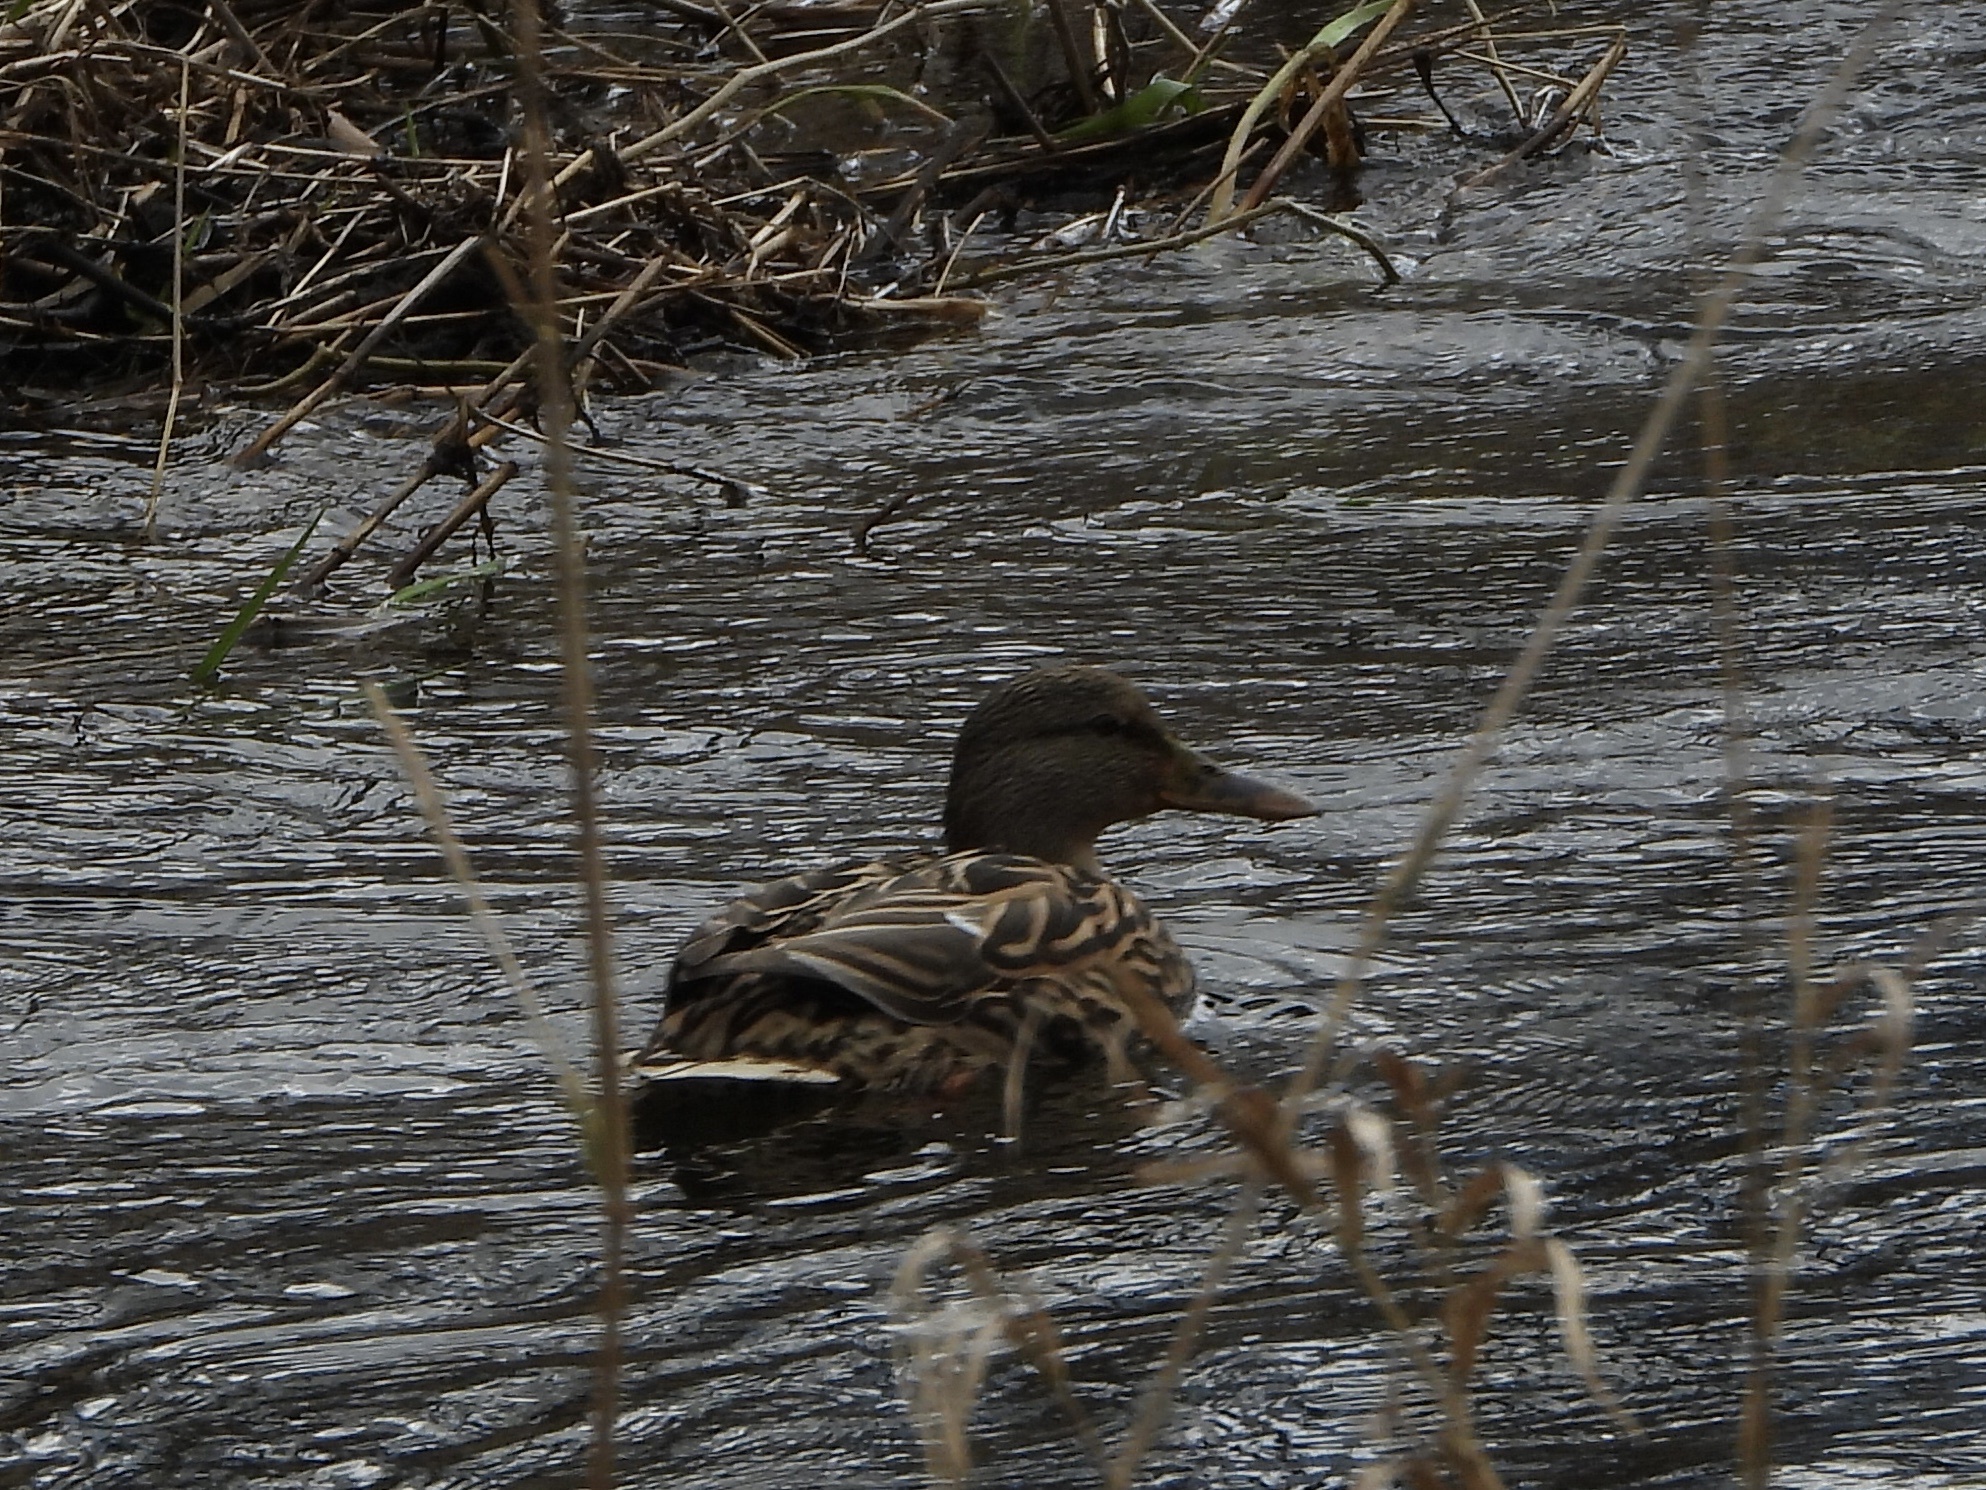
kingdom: Animalia
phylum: Chordata
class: Aves
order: Anseriformes
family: Anatidae
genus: Anas
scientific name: Anas platyrhynchos
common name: Mallard
